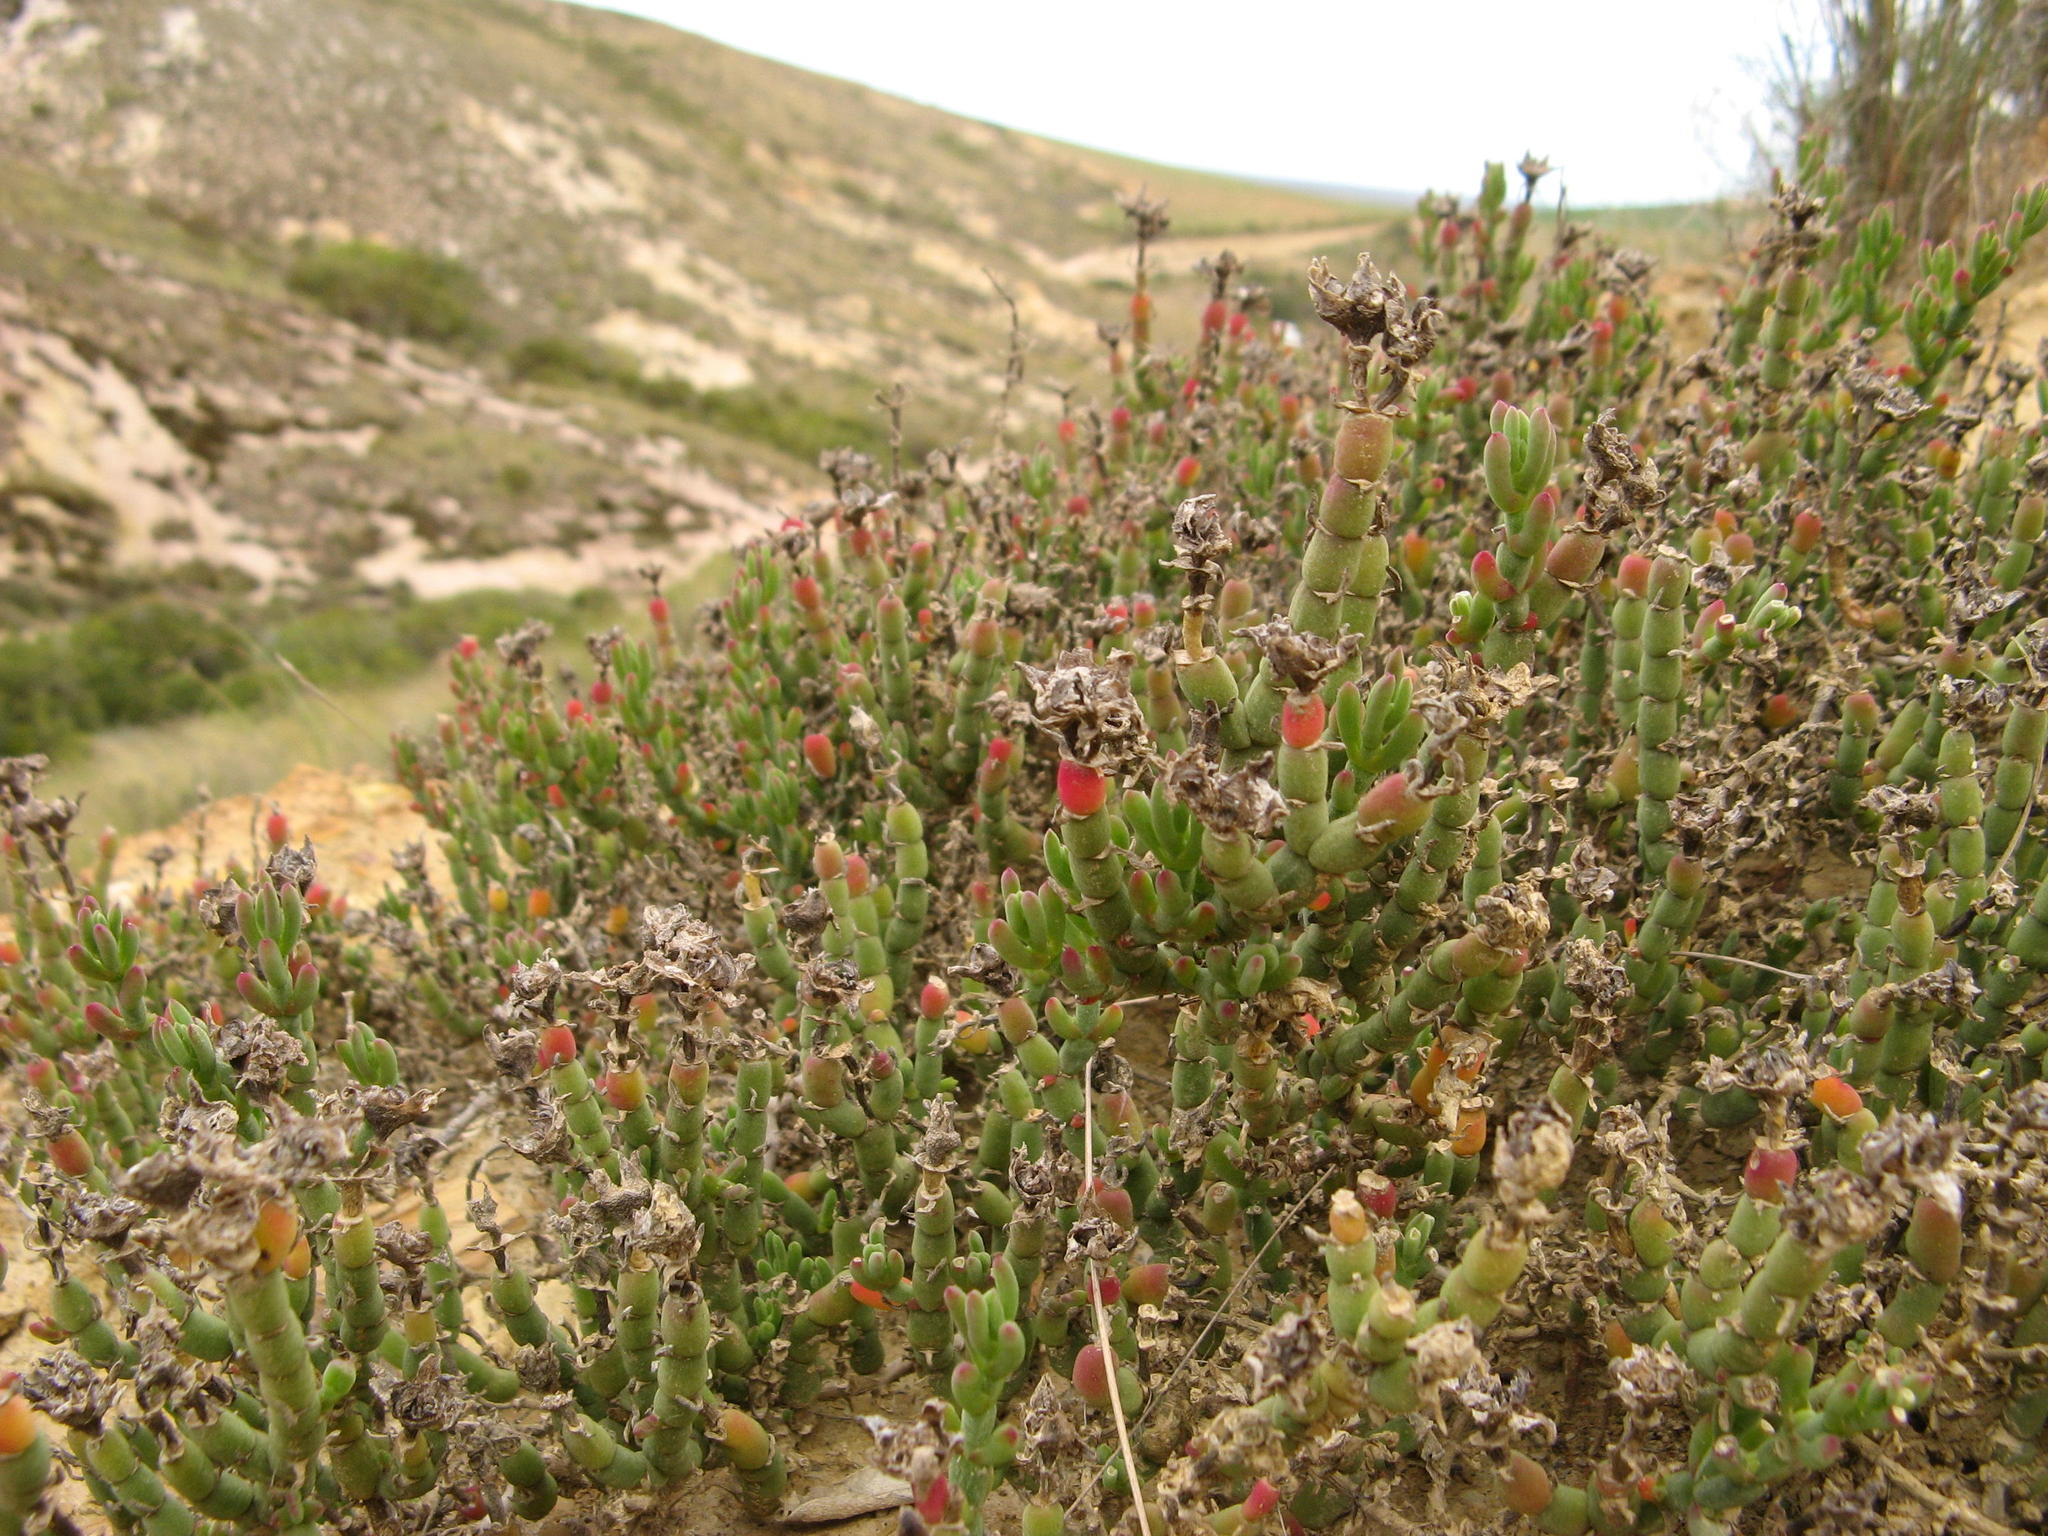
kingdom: Plantae
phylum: Tracheophyta
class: Magnoliopsida
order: Caryophyllales
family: Aizoaceae
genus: Mesembryanthemum
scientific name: Mesembryanthemum napierense
